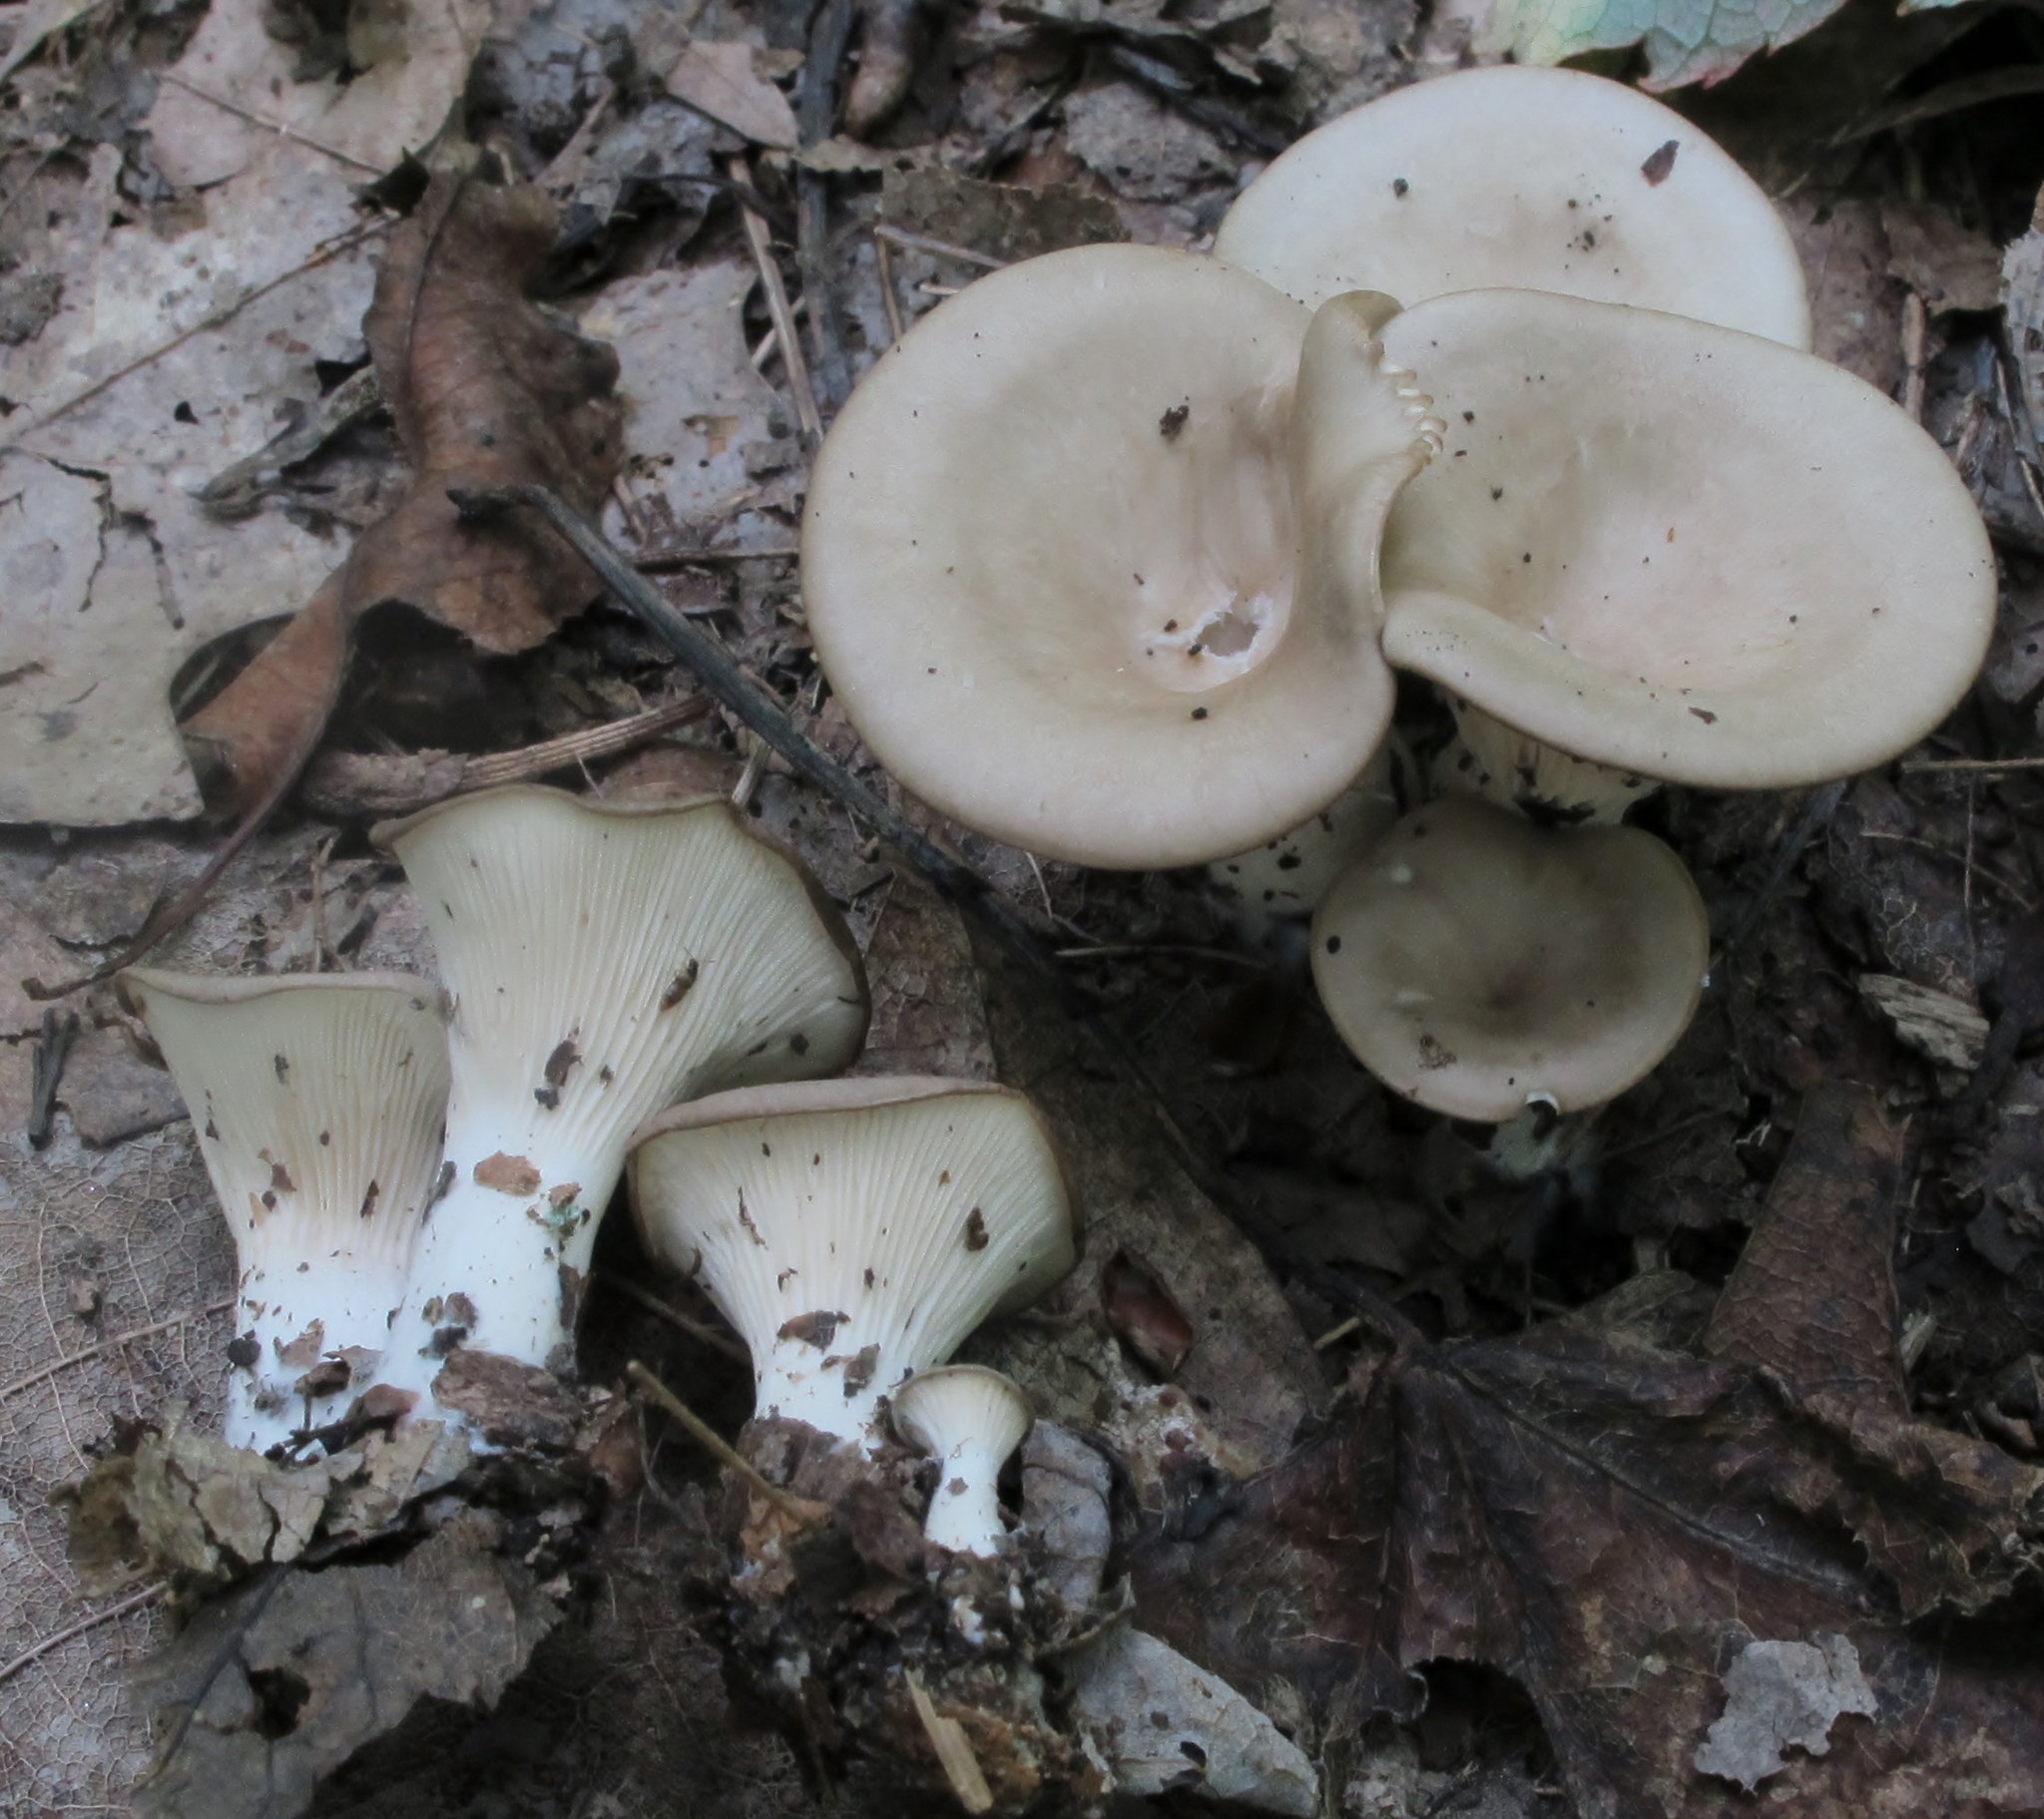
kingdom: Fungi
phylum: Basidiomycota
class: Agaricomycetes
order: Agaricales
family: Tricholomataceae
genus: Singerocybe
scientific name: Singerocybe adirondackensis
